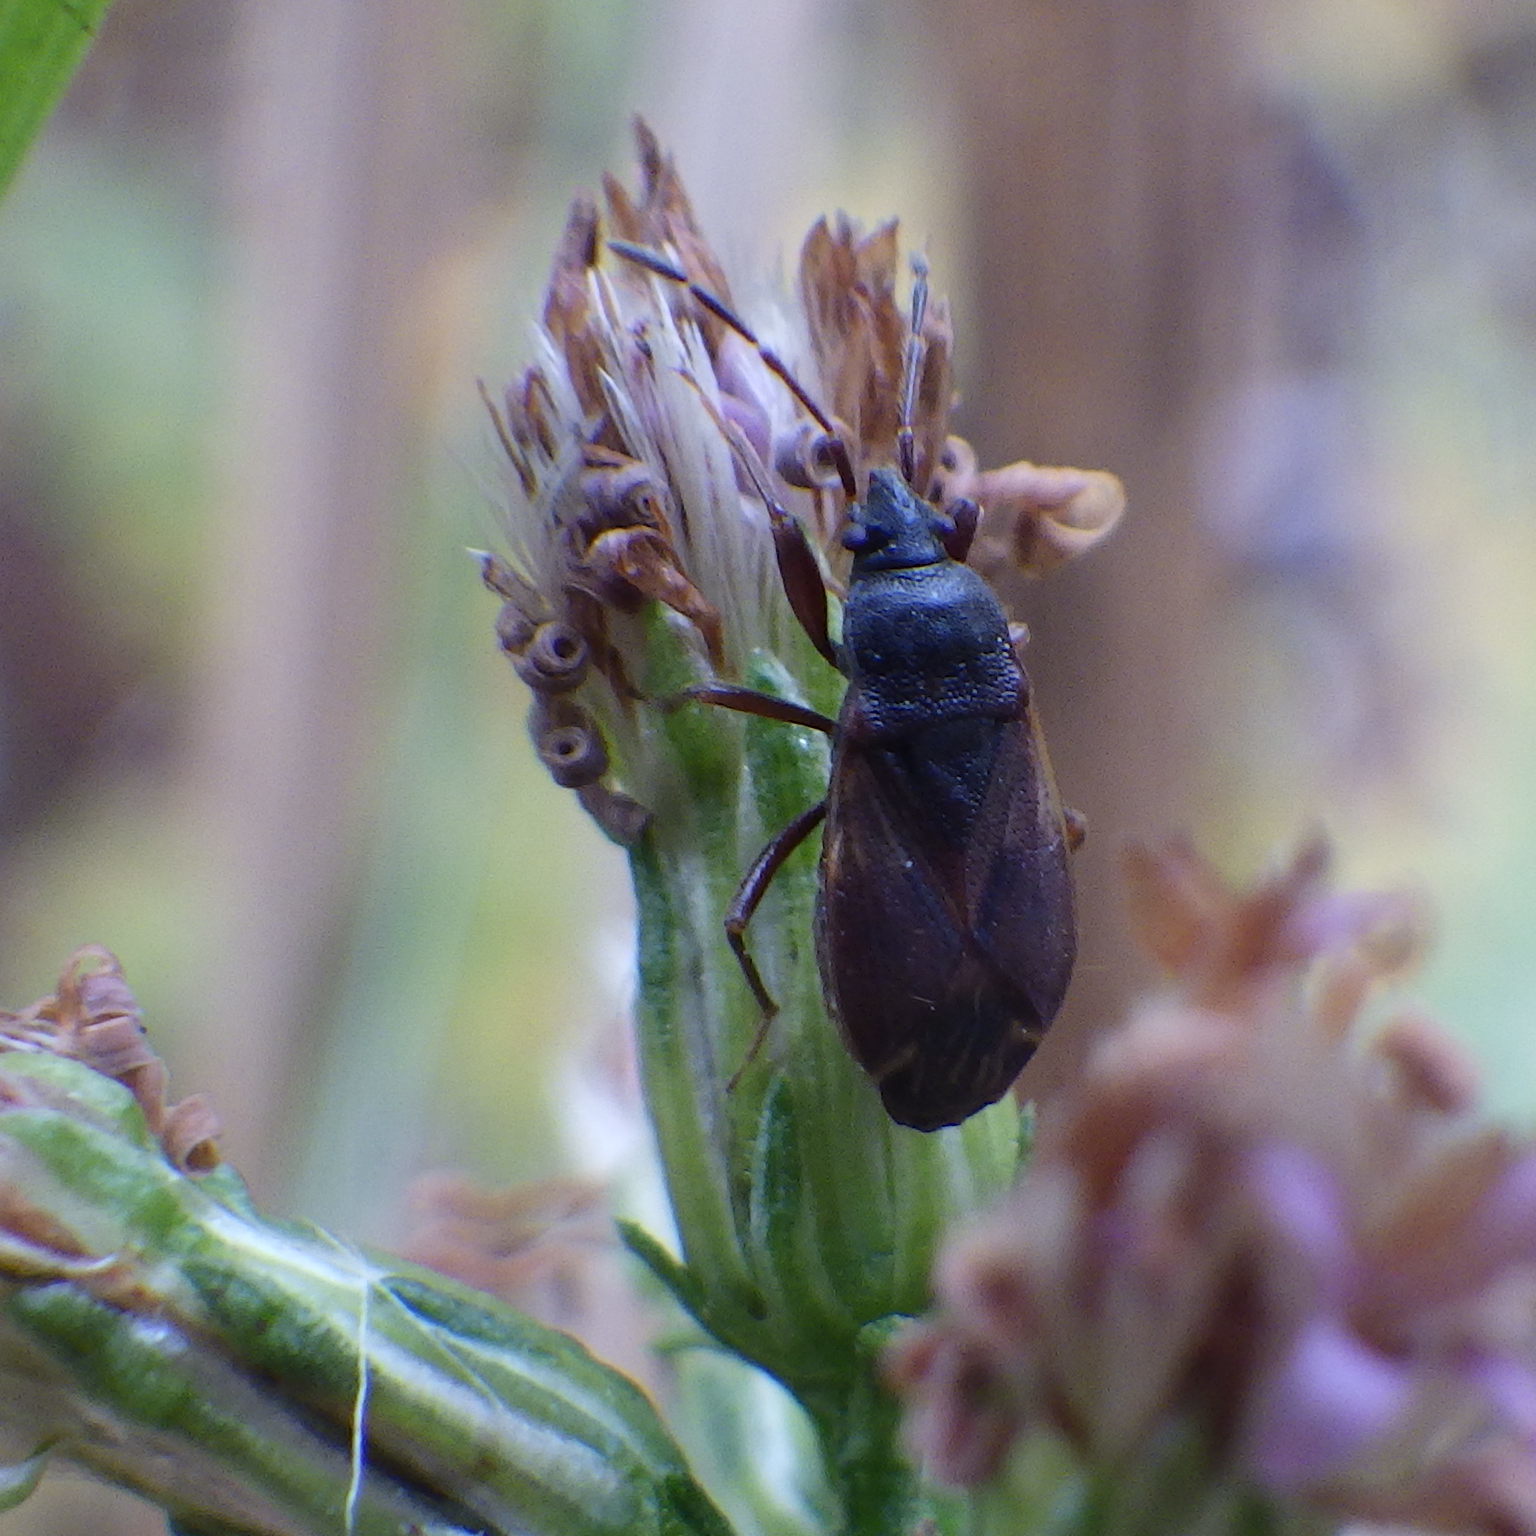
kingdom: Animalia
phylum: Arthropoda
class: Insecta
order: Hemiptera
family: Rhyparochromidae
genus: Drymus
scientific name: Drymus unus
